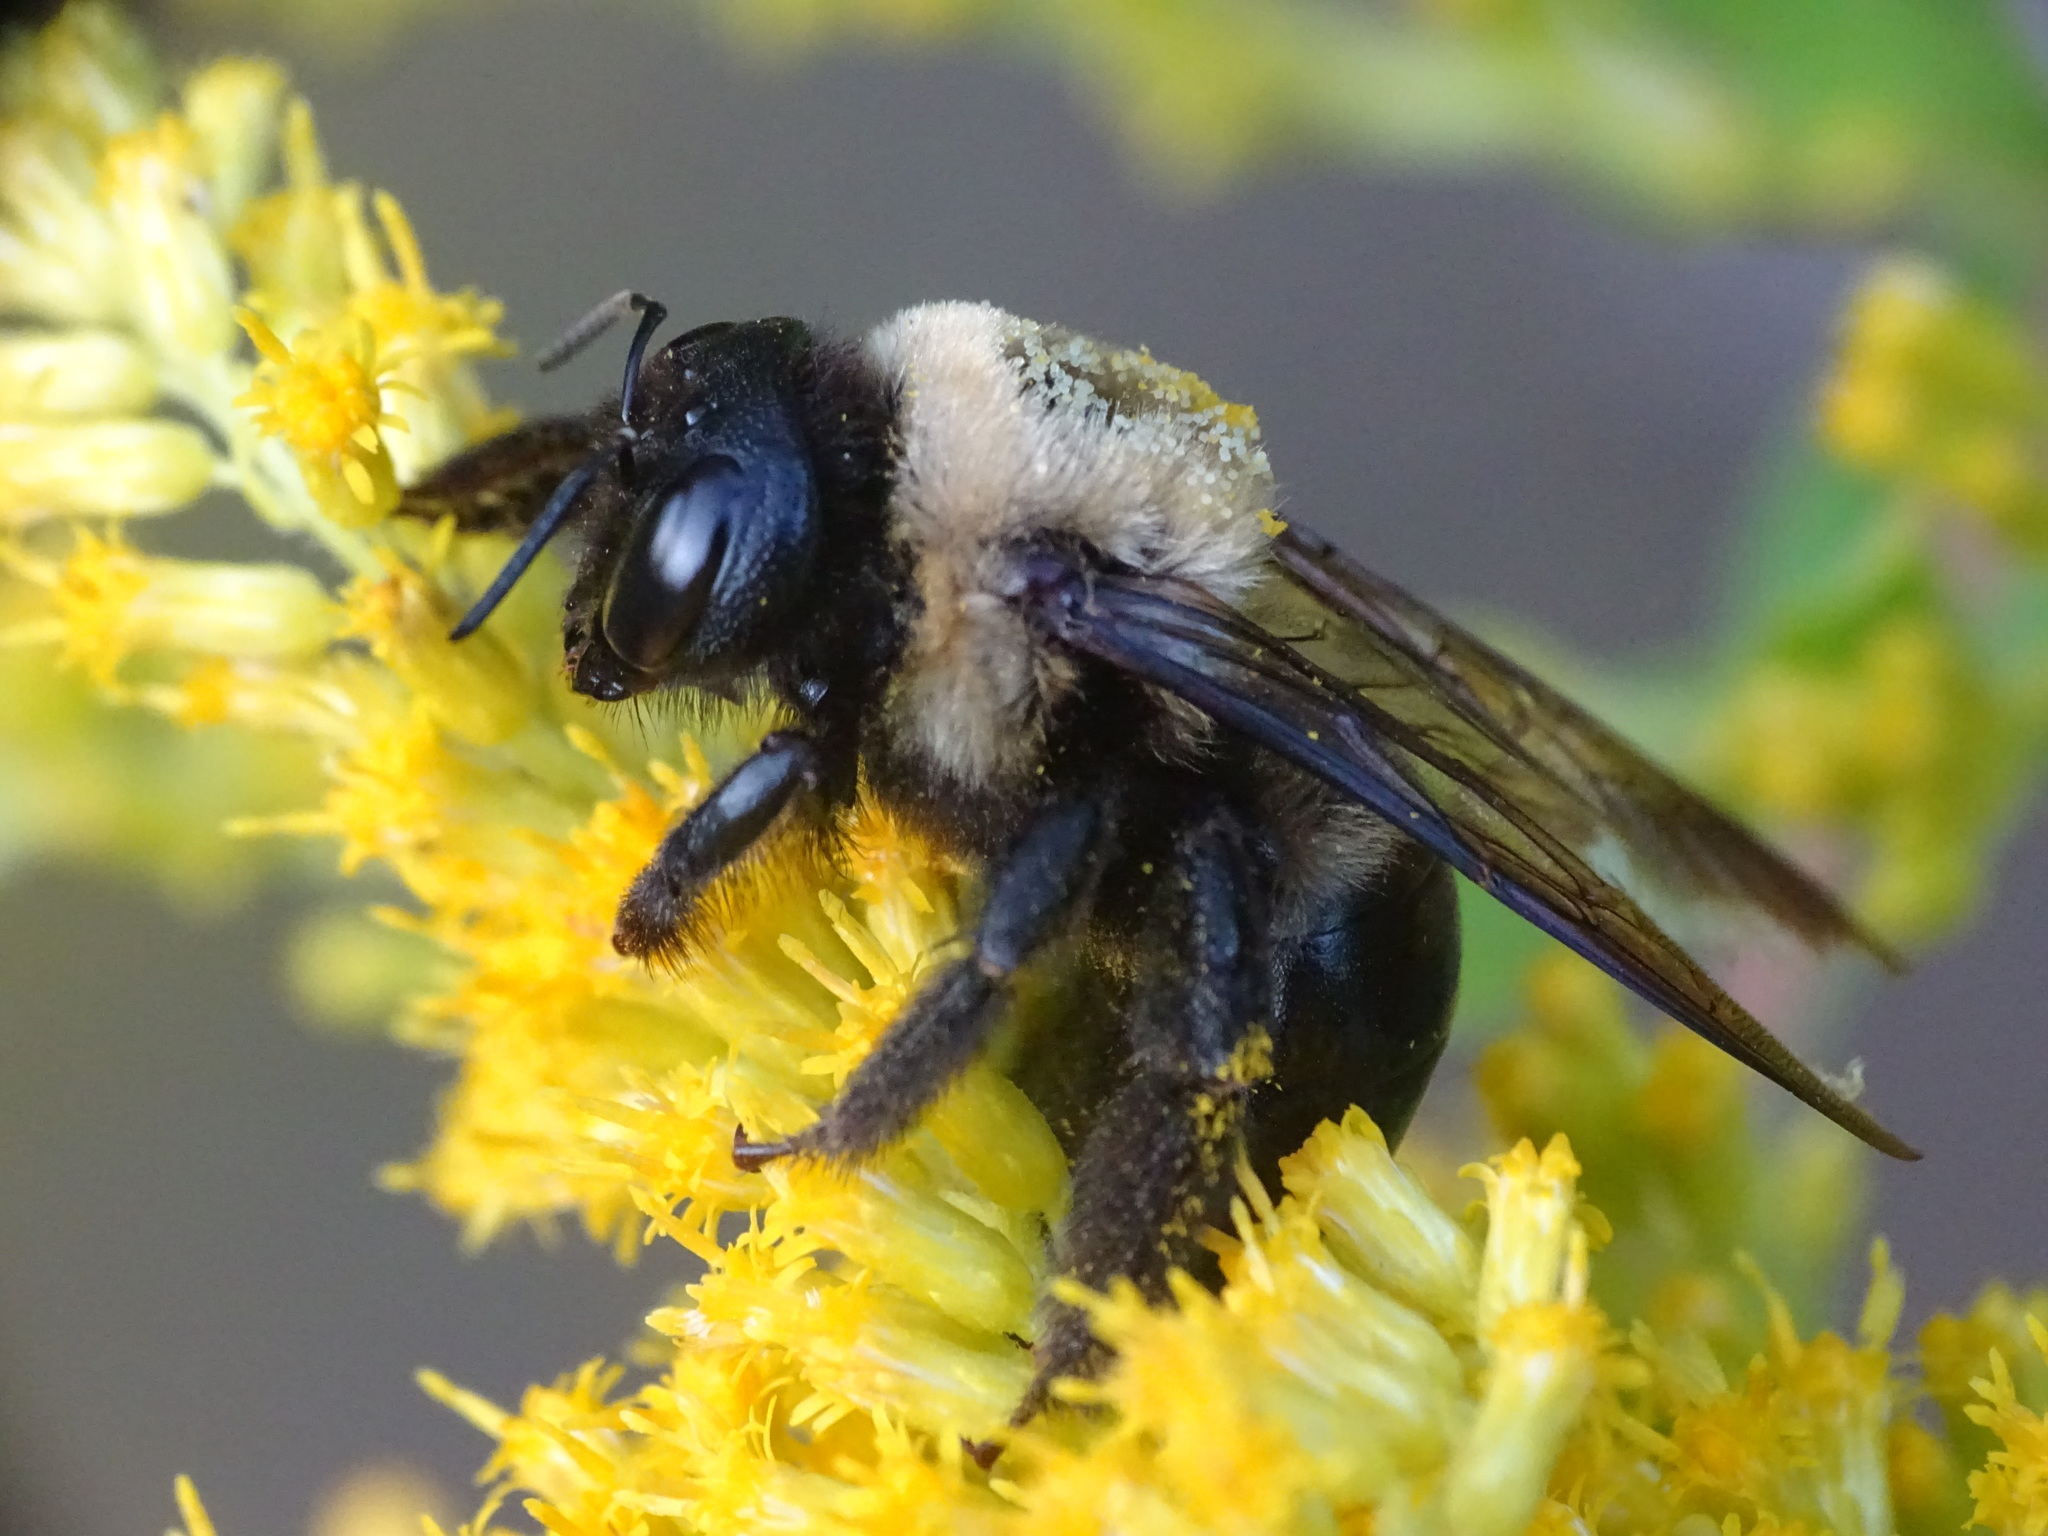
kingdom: Animalia
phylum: Arthropoda
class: Insecta
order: Hymenoptera
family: Apidae
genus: Xylocopa
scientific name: Xylocopa virginica
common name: Carpenter bee
